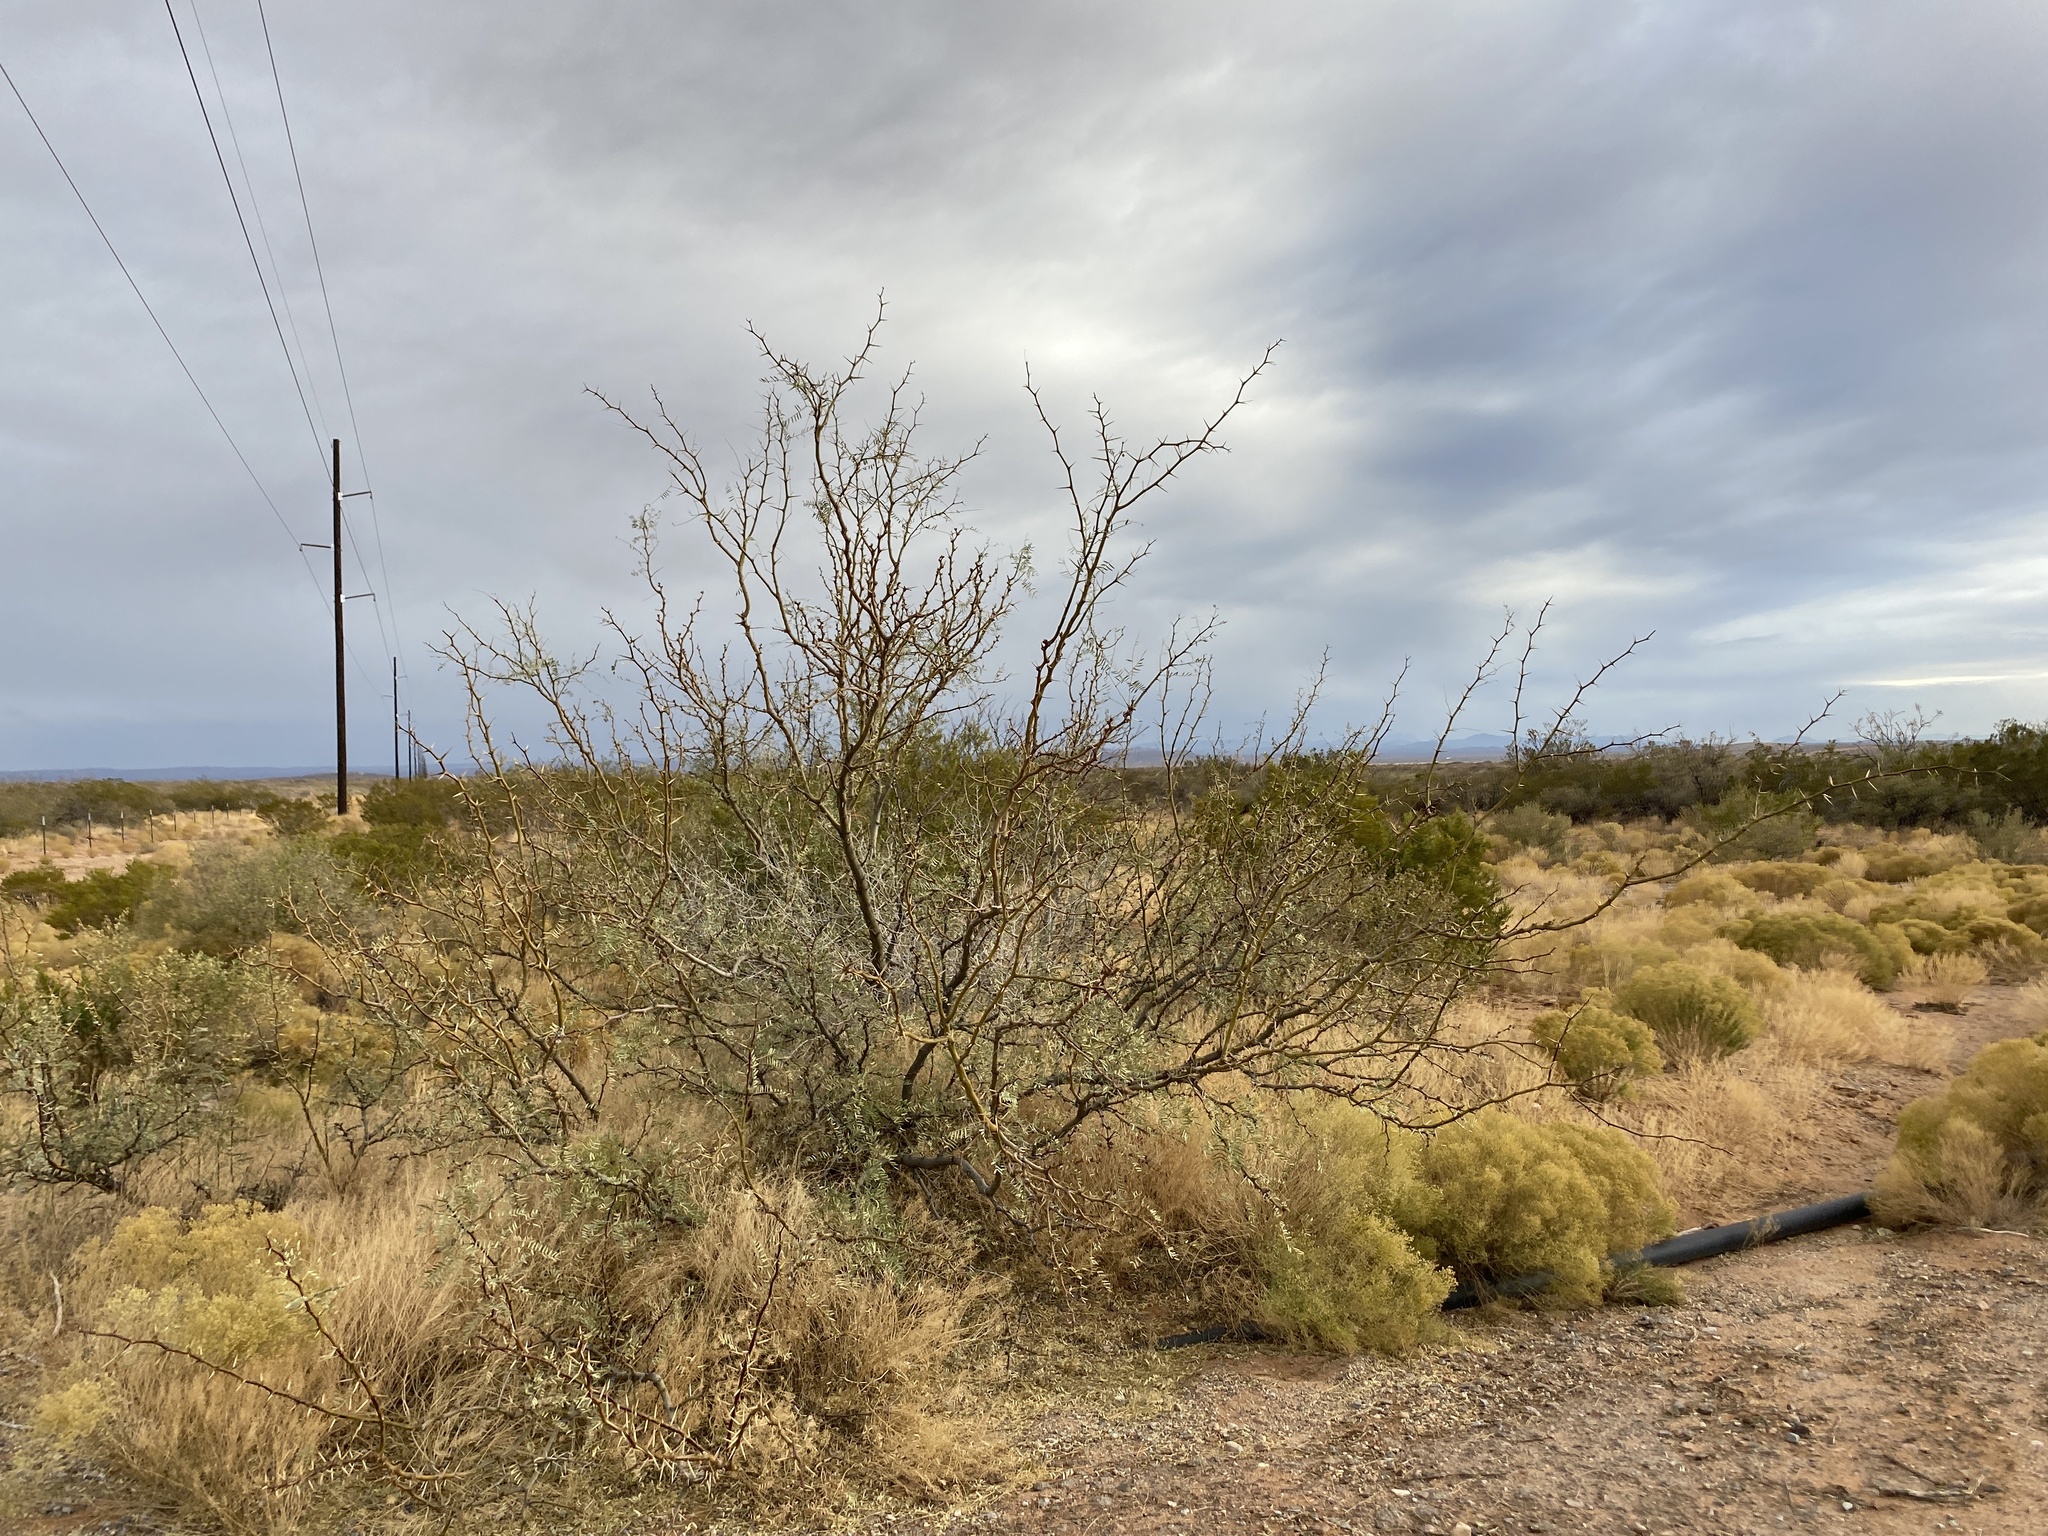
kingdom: Plantae
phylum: Tracheophyta
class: Magnoliopsida
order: Fabales
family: Fabaceae
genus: Prosopis
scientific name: Prosopis glandulosa
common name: Honey mesquite
